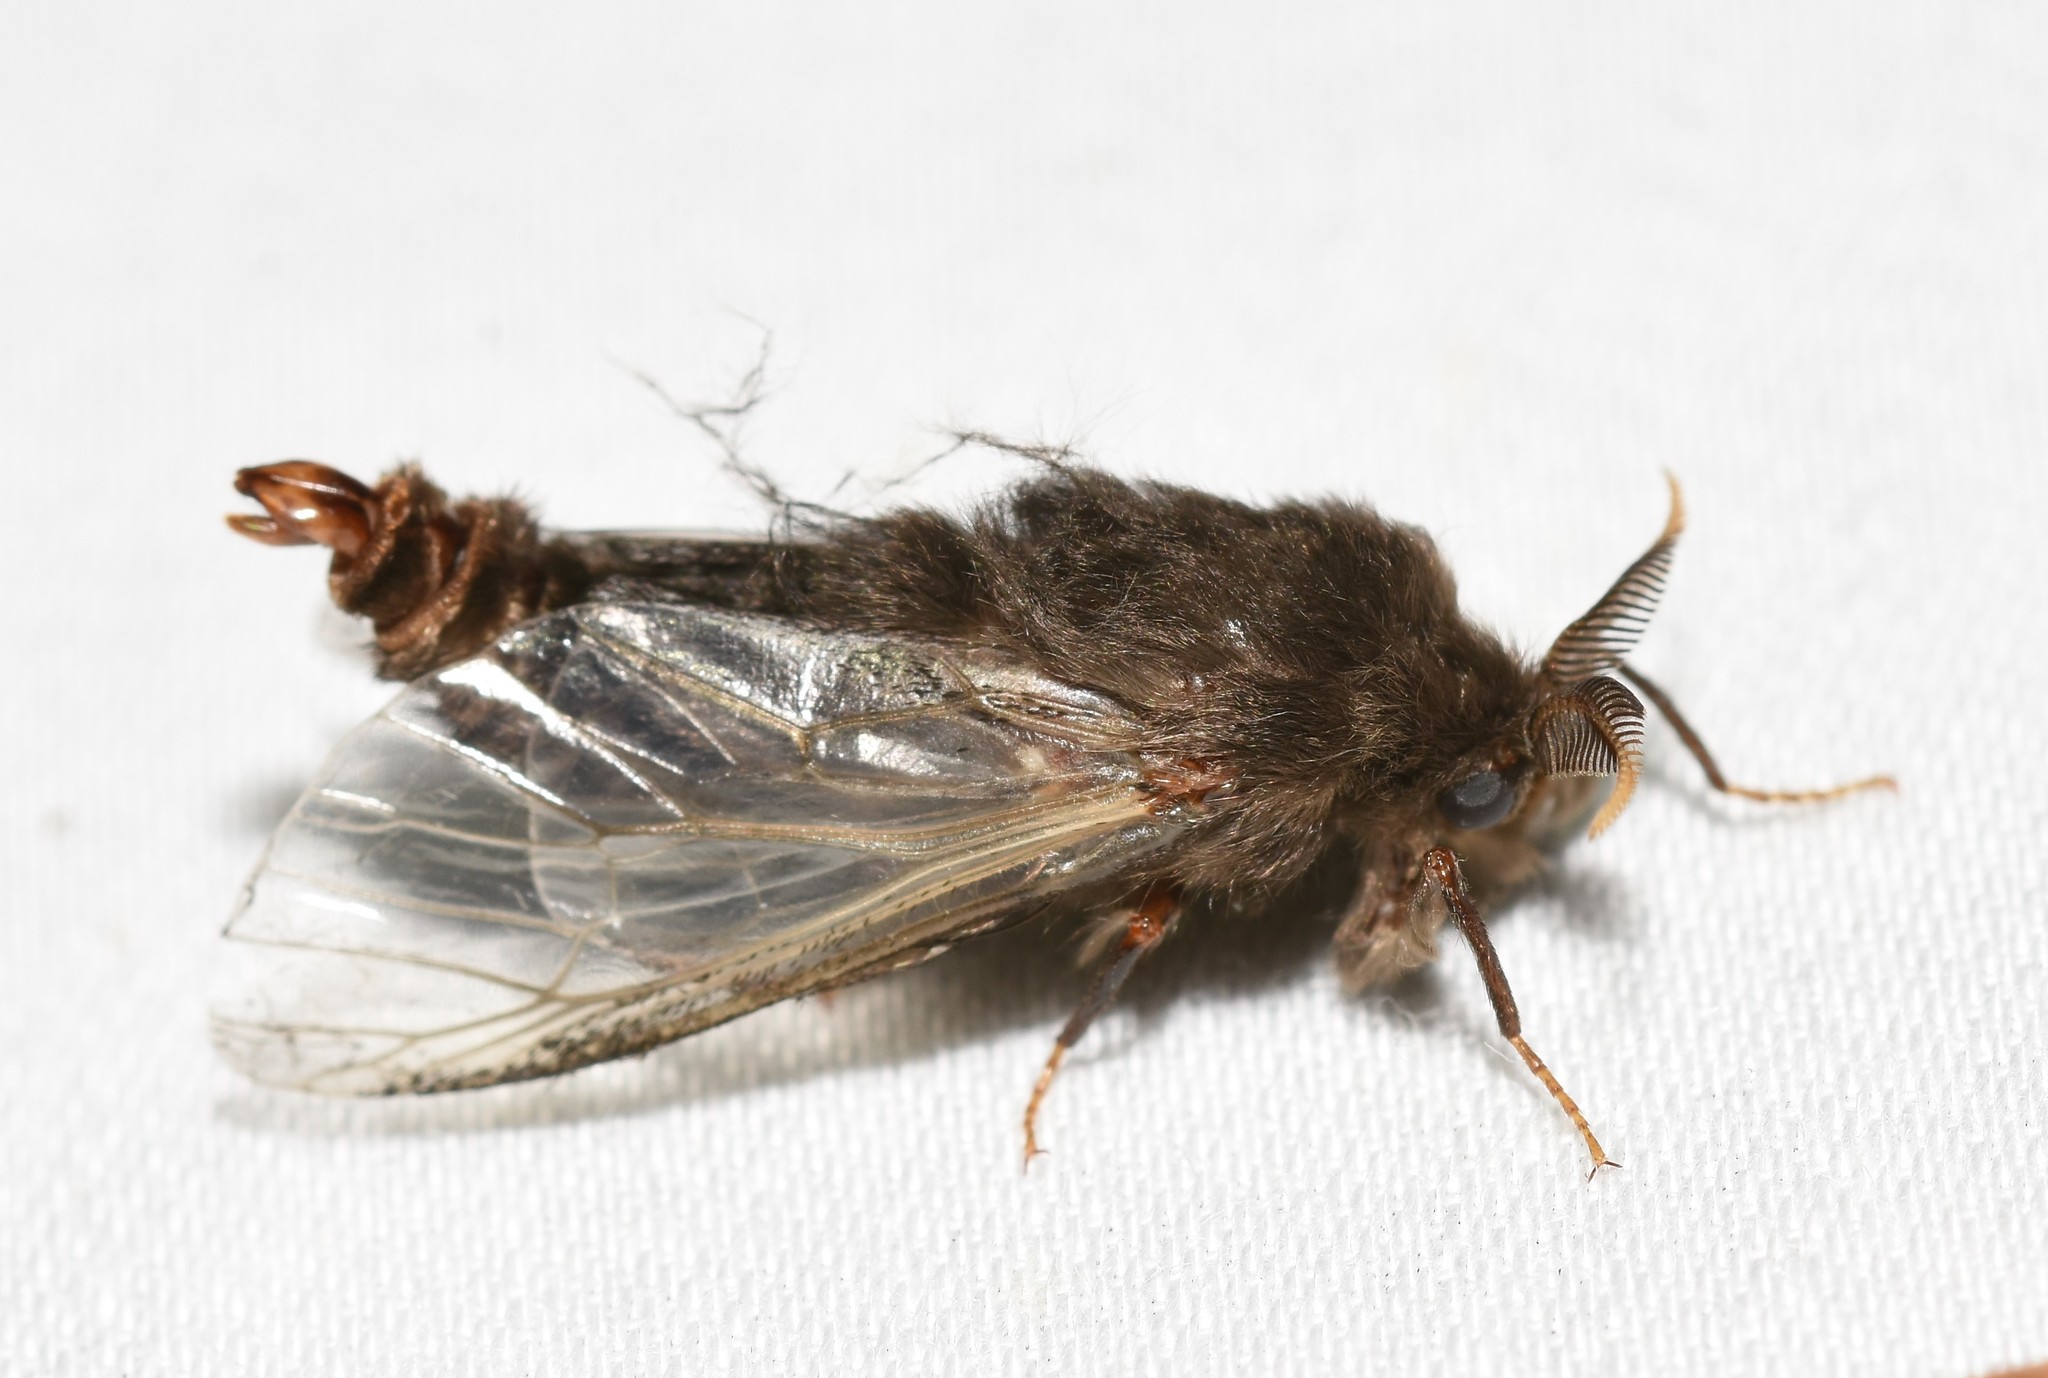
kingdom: Animalia
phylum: Arthropoda
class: Insecta
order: Lepidoptera
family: Psychidae
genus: Thyridopteryx
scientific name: Thyridopteryx ephemeraeformis
